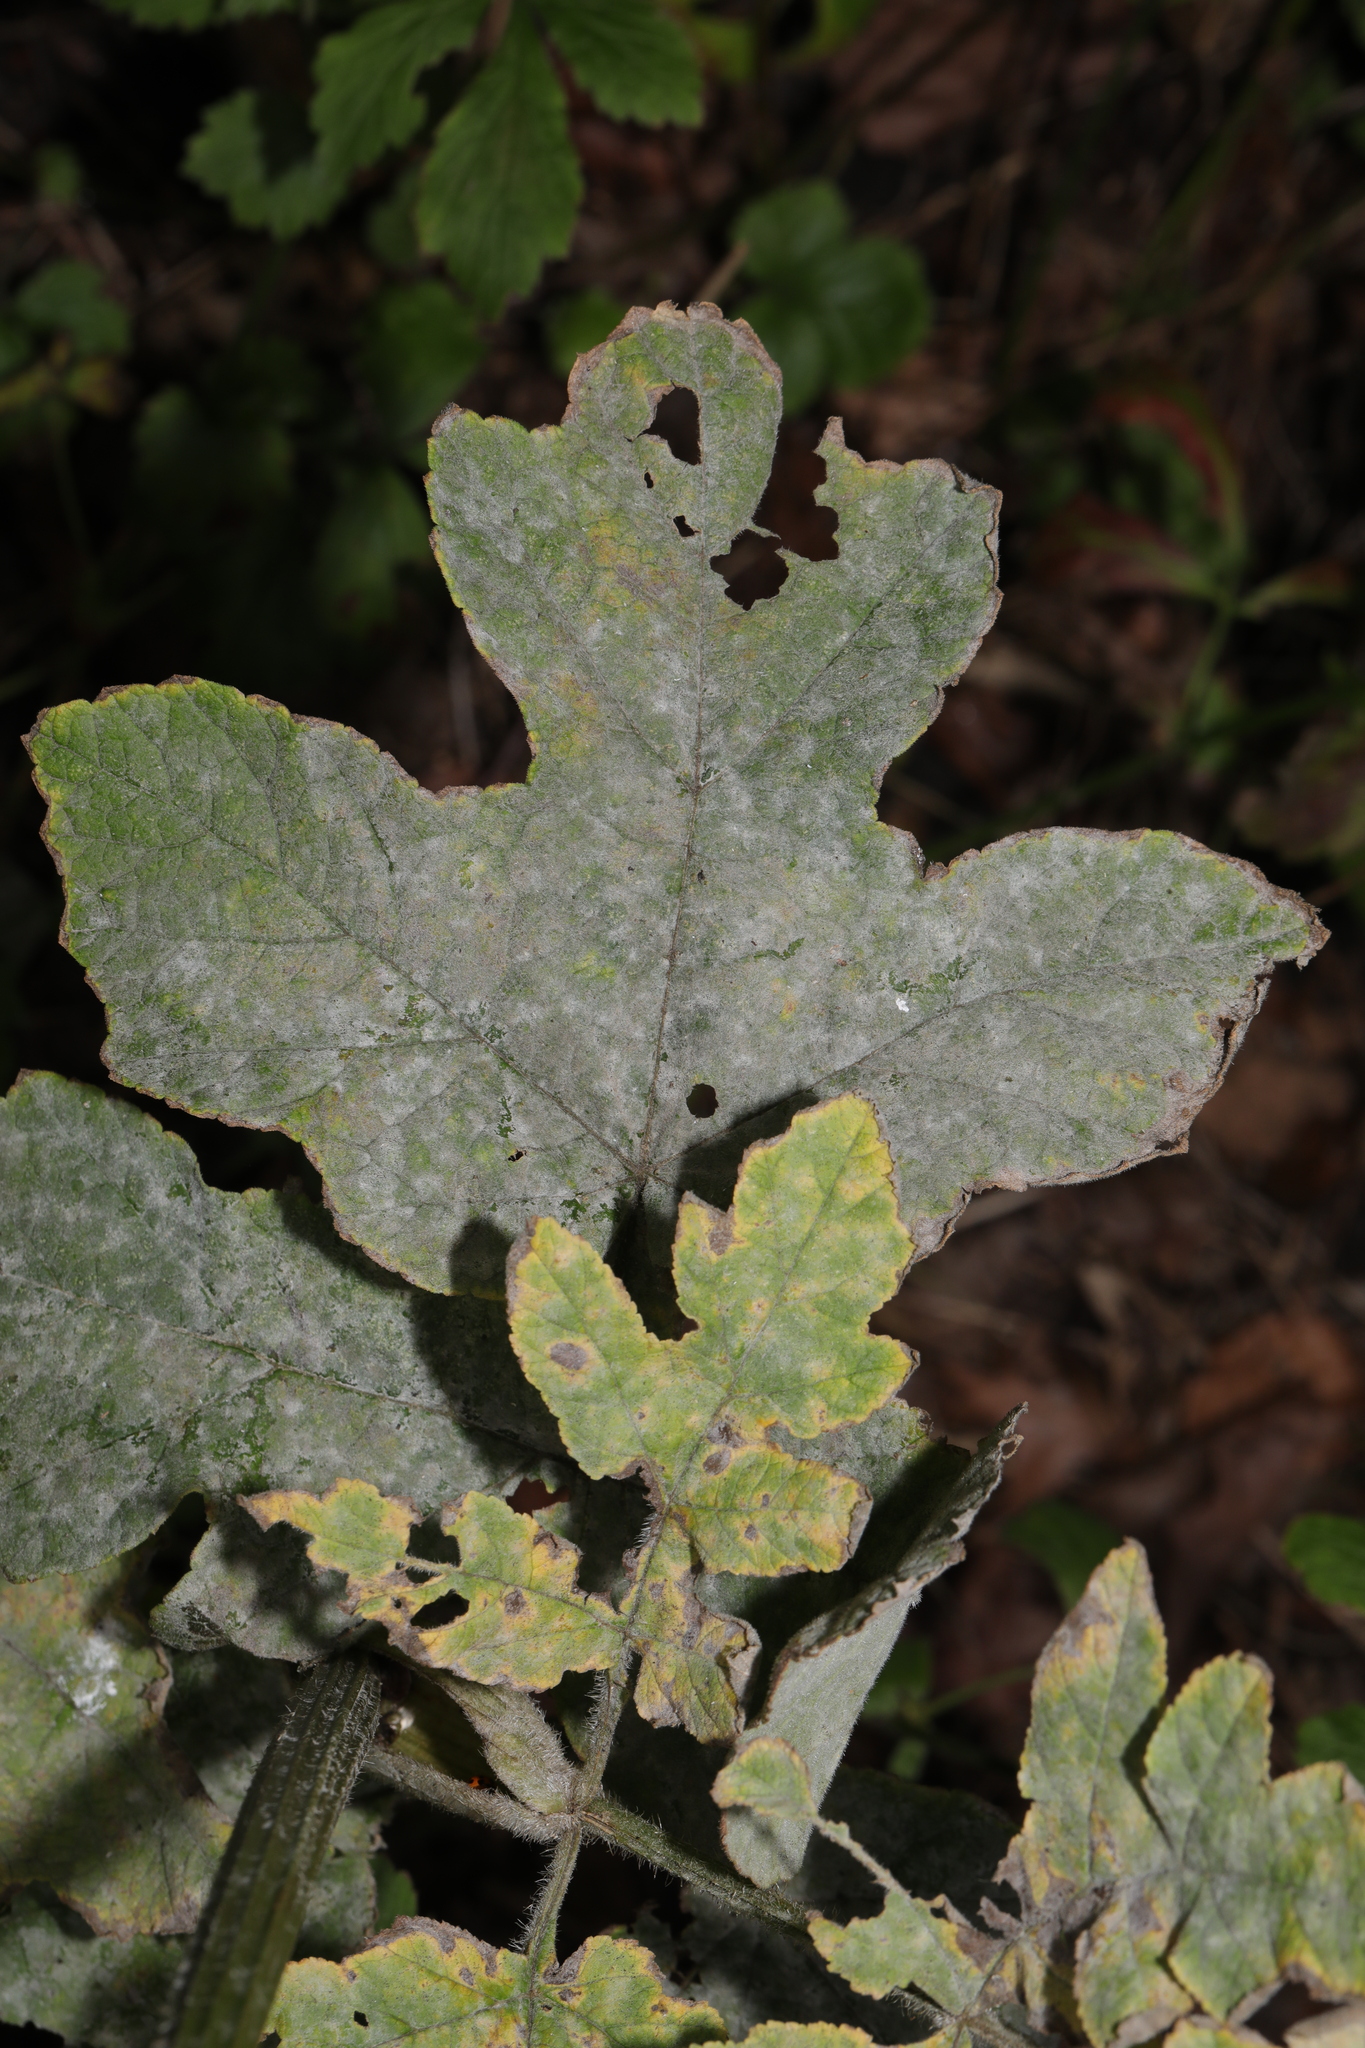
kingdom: Fungi
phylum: Ascomycota
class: Leotiomycetes
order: Helotiales
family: Erysiphaceae
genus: Erysiphe
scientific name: Erysiphe heraclei
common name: Umbellifer mildew
